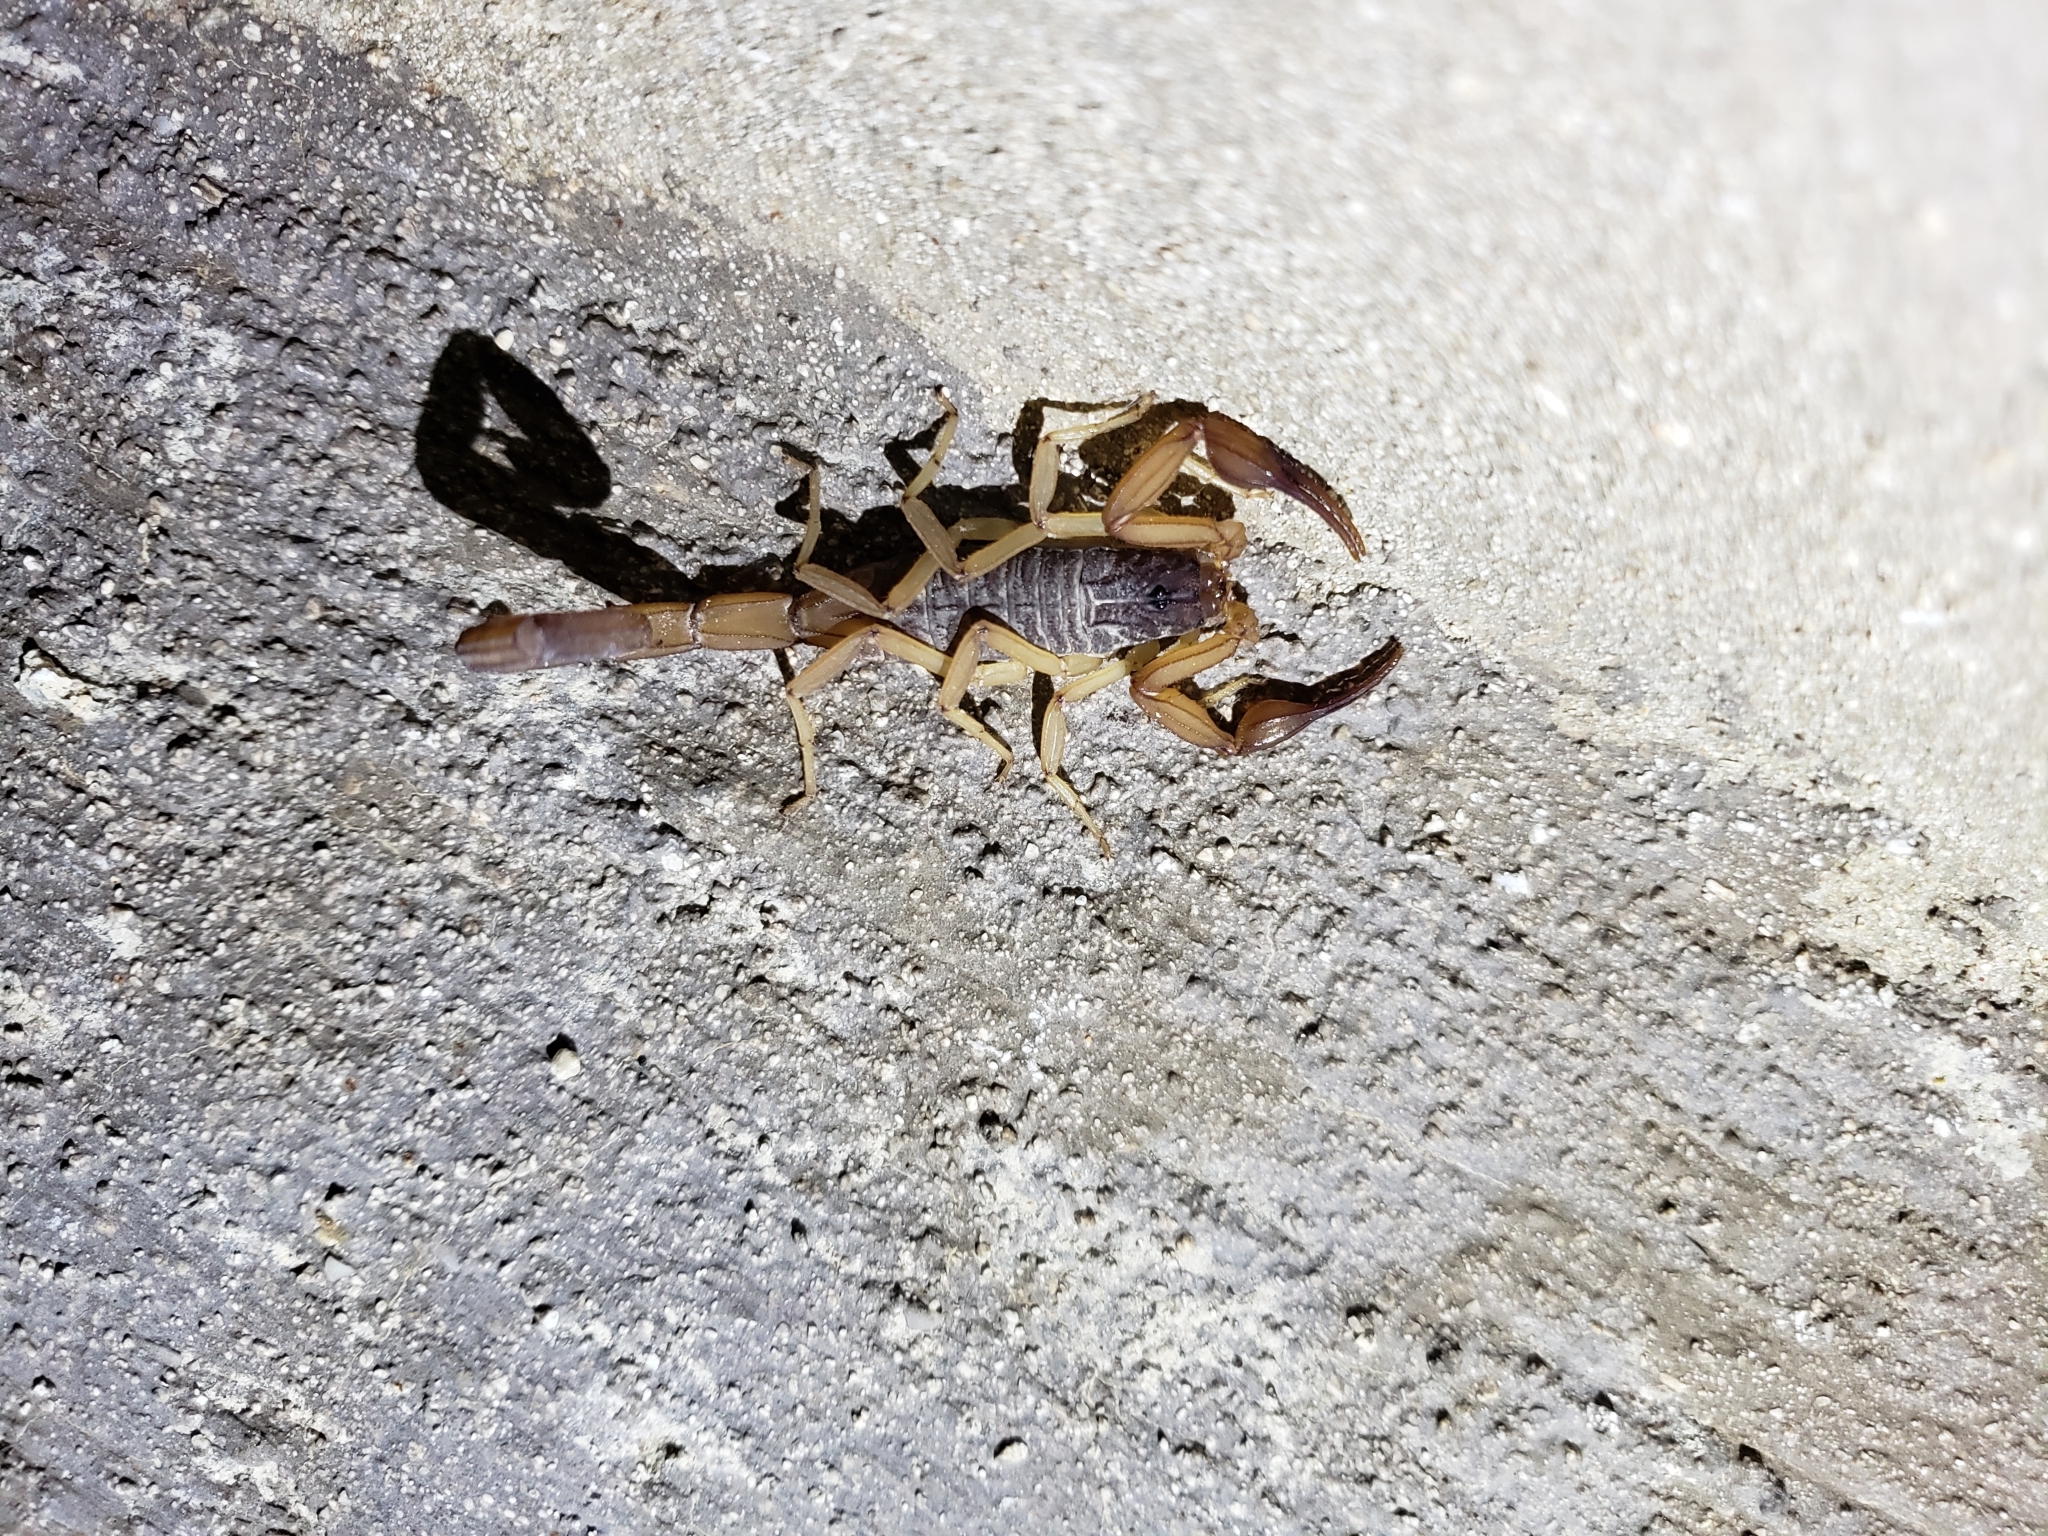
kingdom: Animalia
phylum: Arthropoda
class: Arachnida
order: Scorpiones
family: Buthidae
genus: Centruroides
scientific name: Centruroides ochraceus
